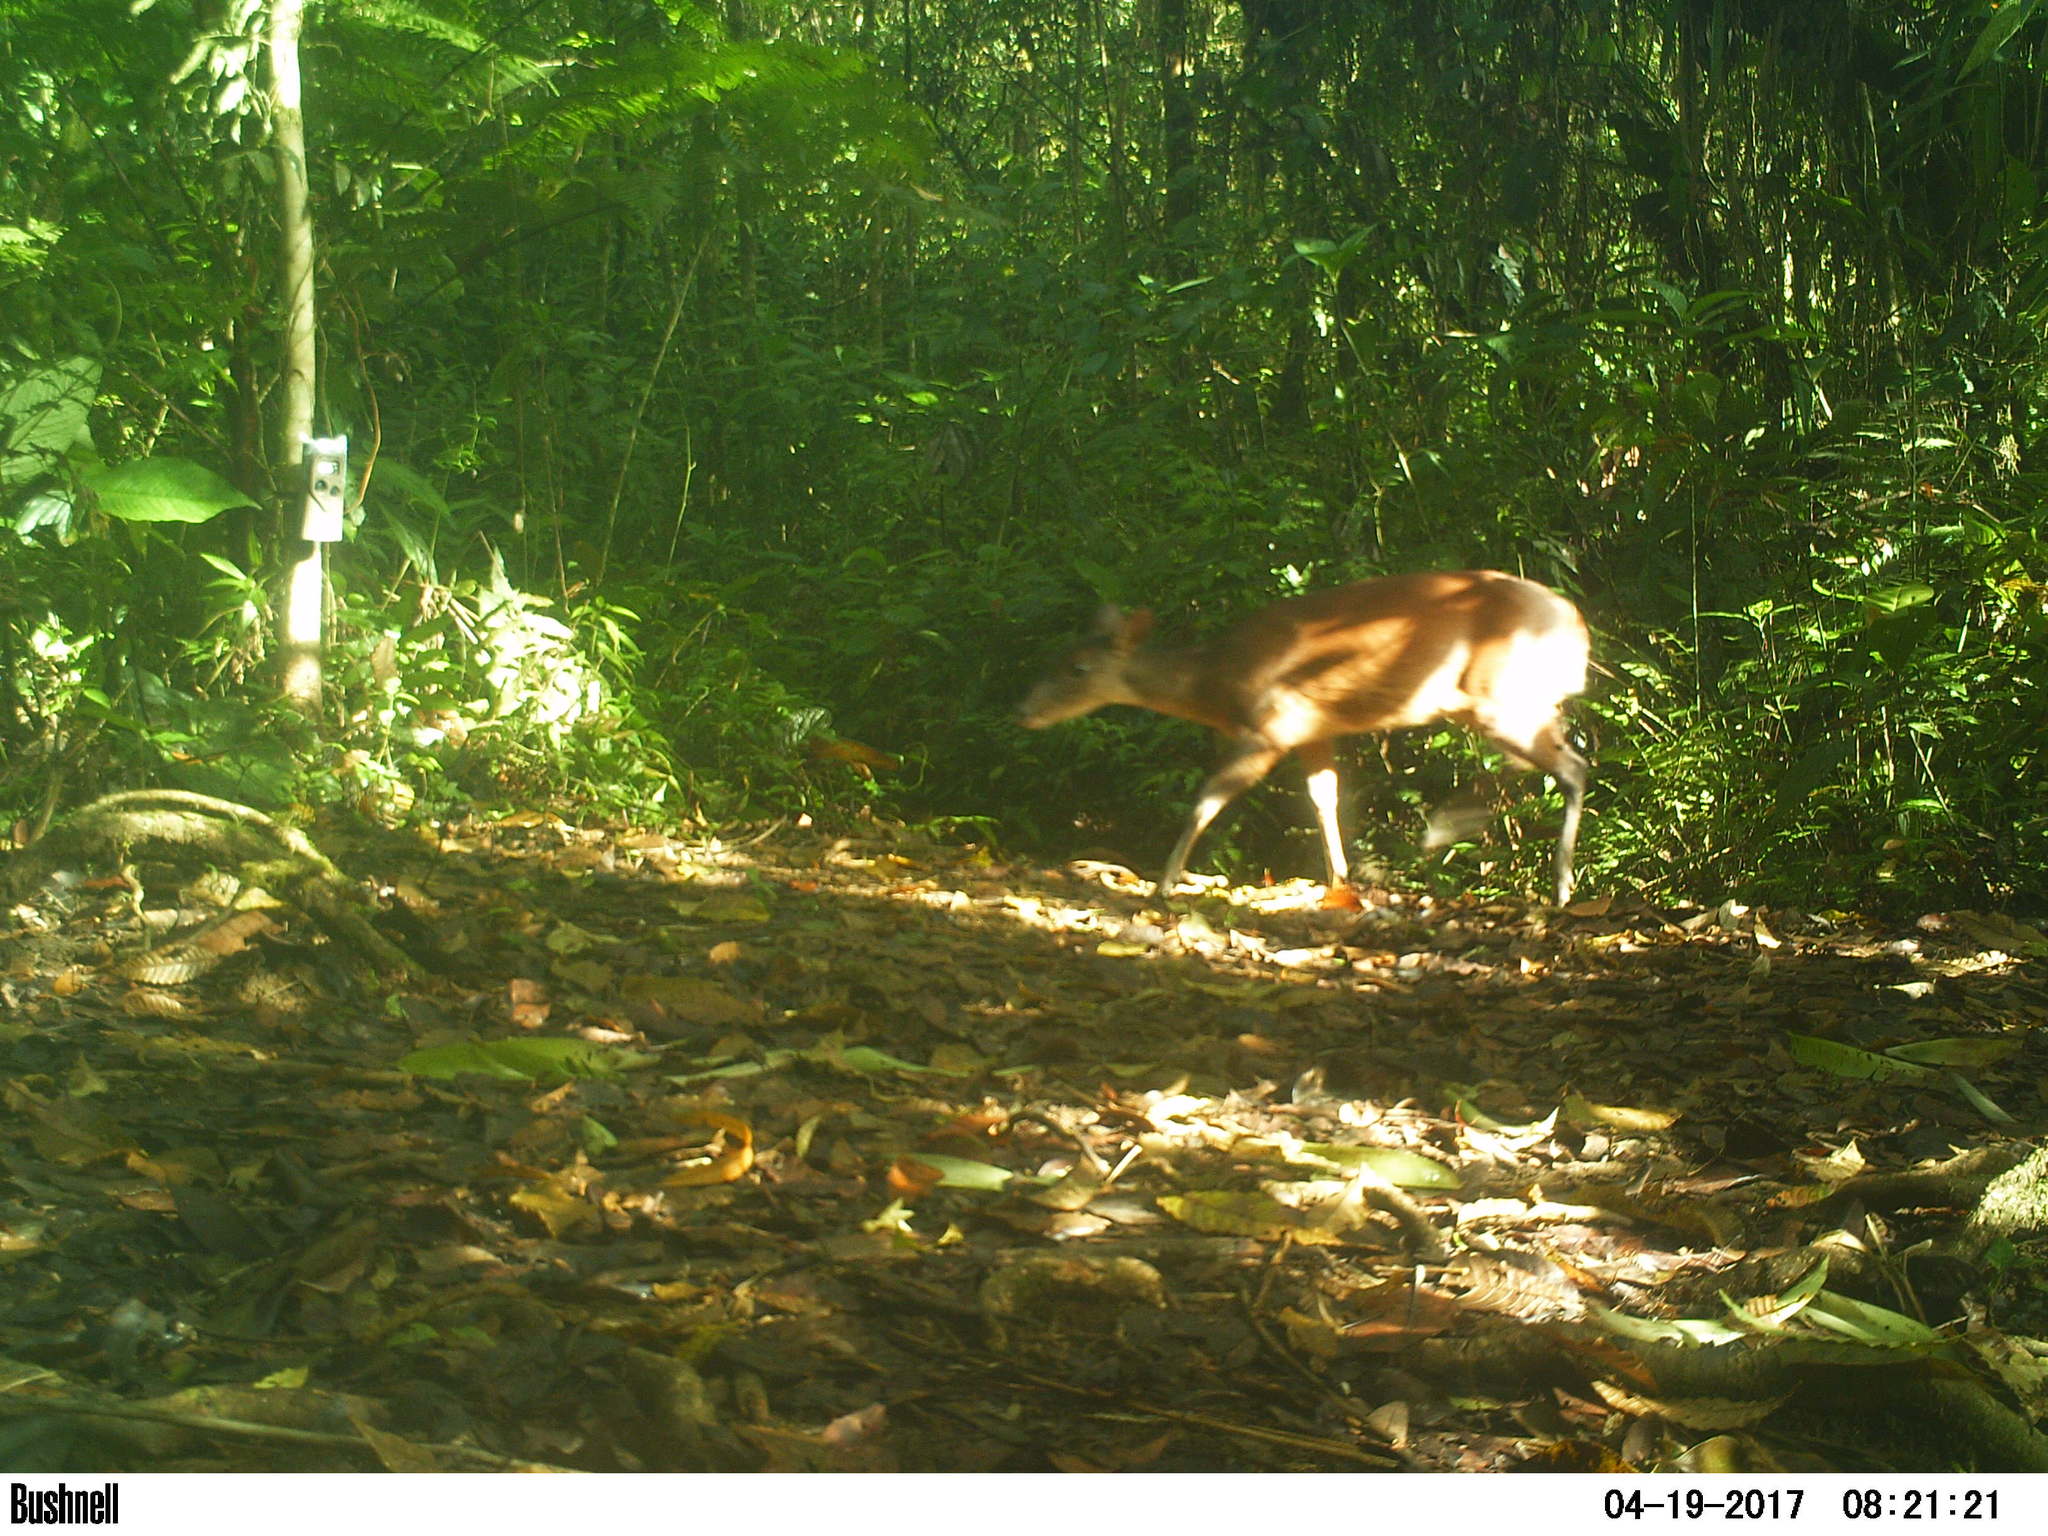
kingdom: Animalia
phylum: Chordata
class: Mammalia
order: Artiodactyla
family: Cervidae
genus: Mazama
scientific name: Mazama temama
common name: Central american red brocket
